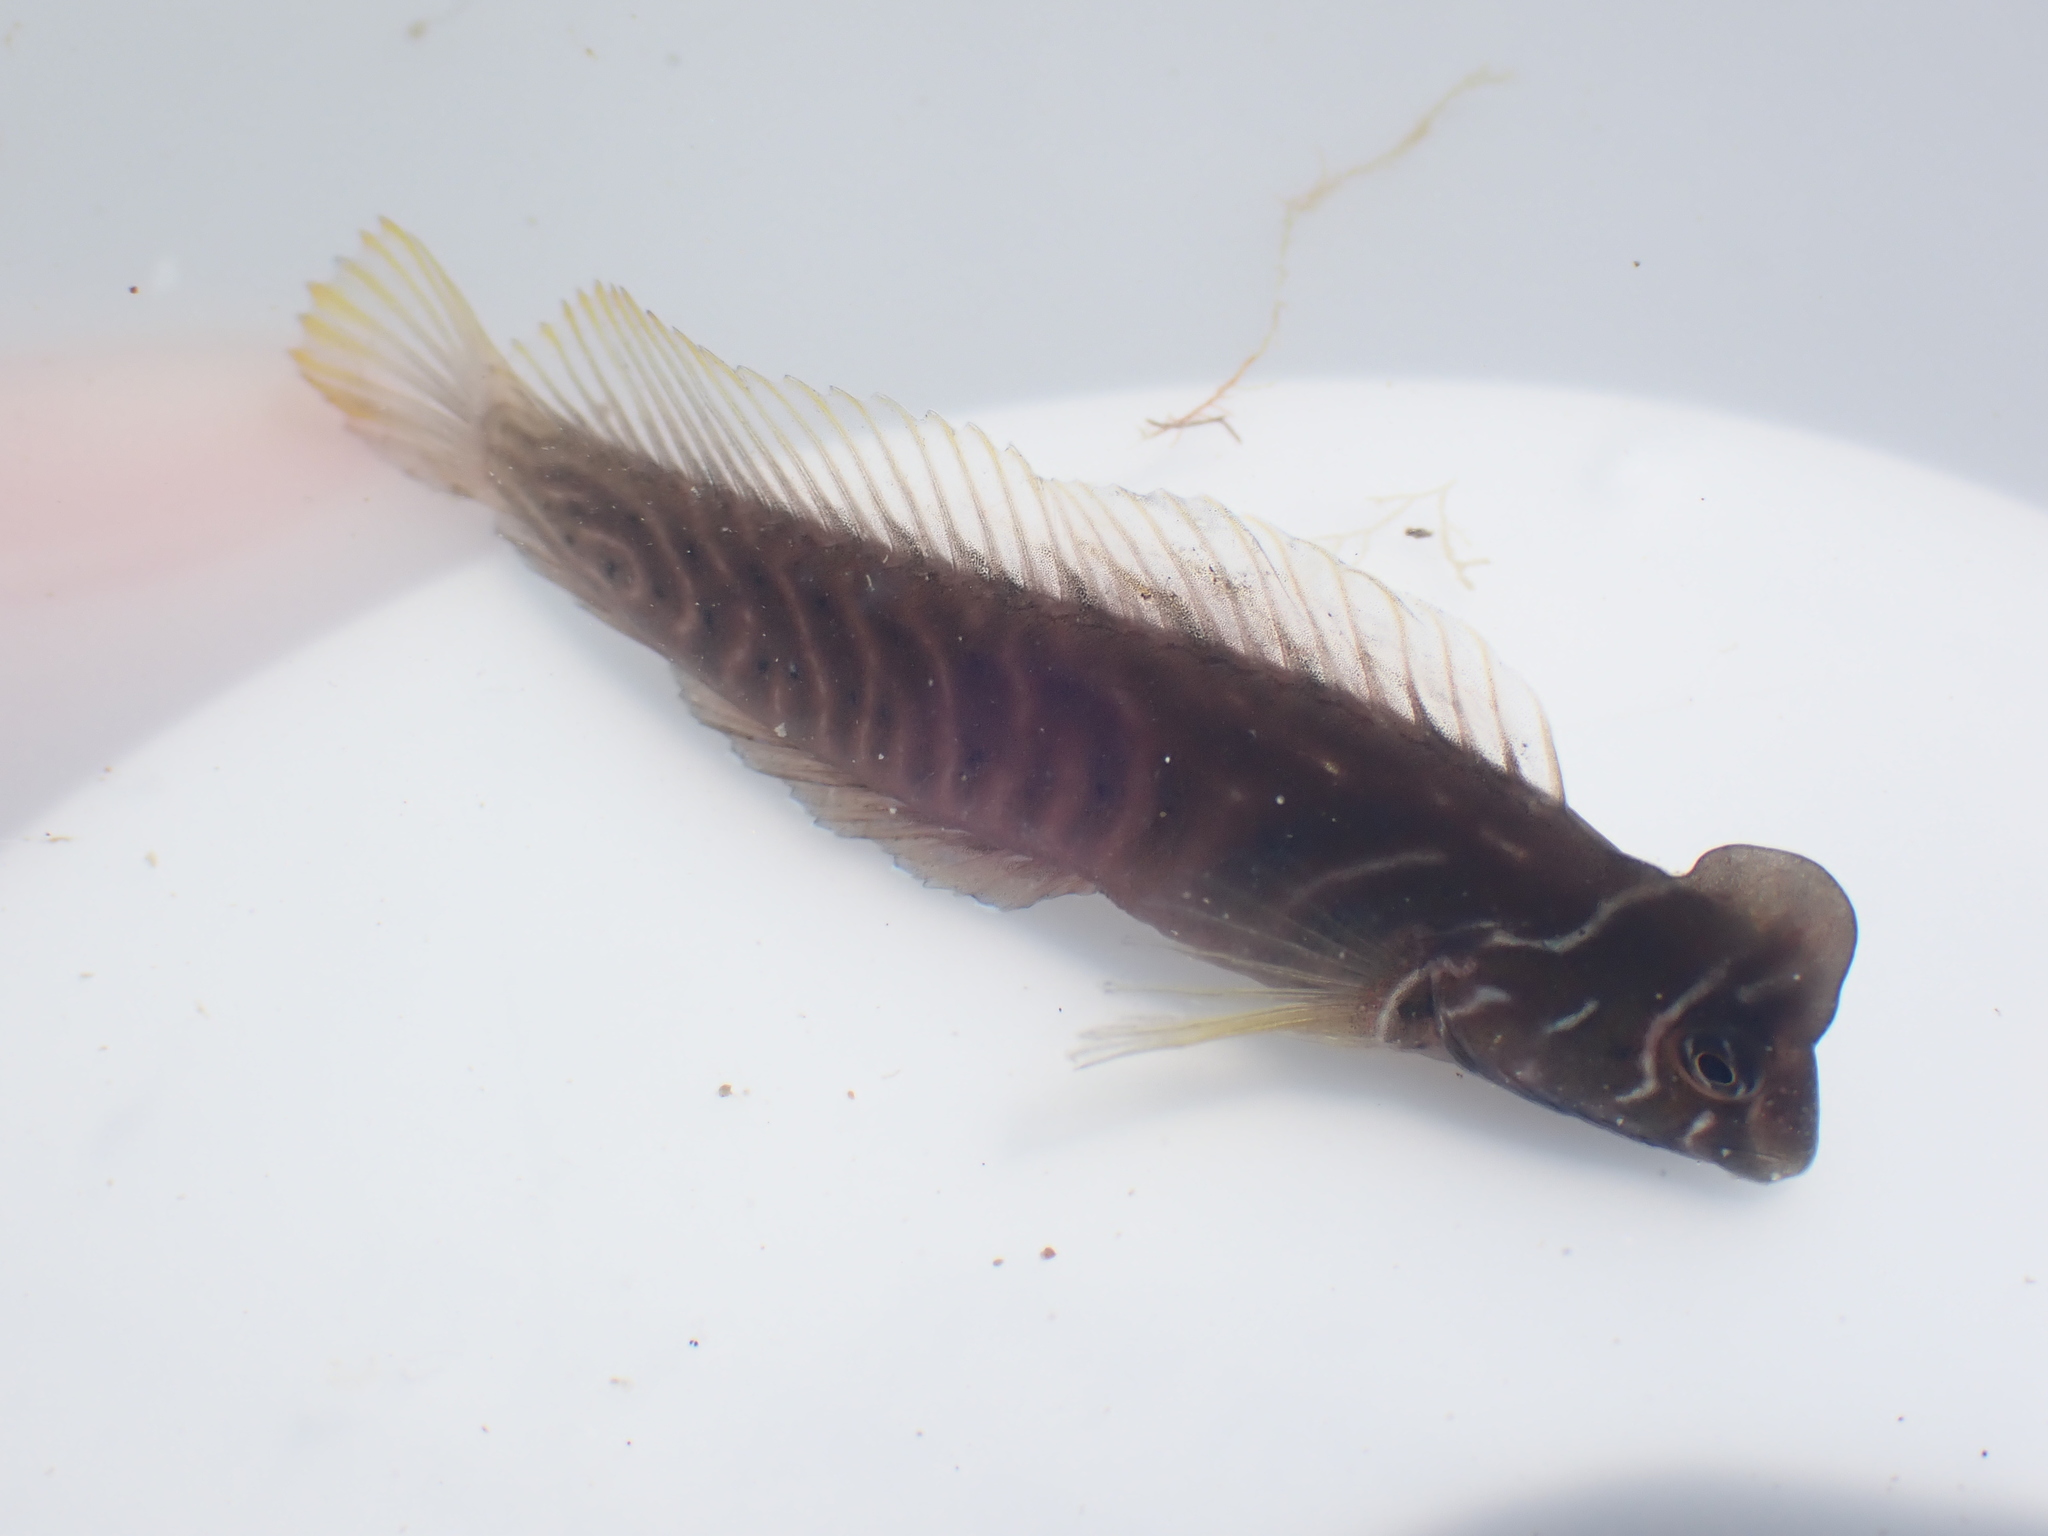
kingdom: Animalia
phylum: Chordata
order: Perciformes
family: Blenniidae
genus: Omobranchus
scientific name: Omobranchus anolius
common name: Oyster blenny
